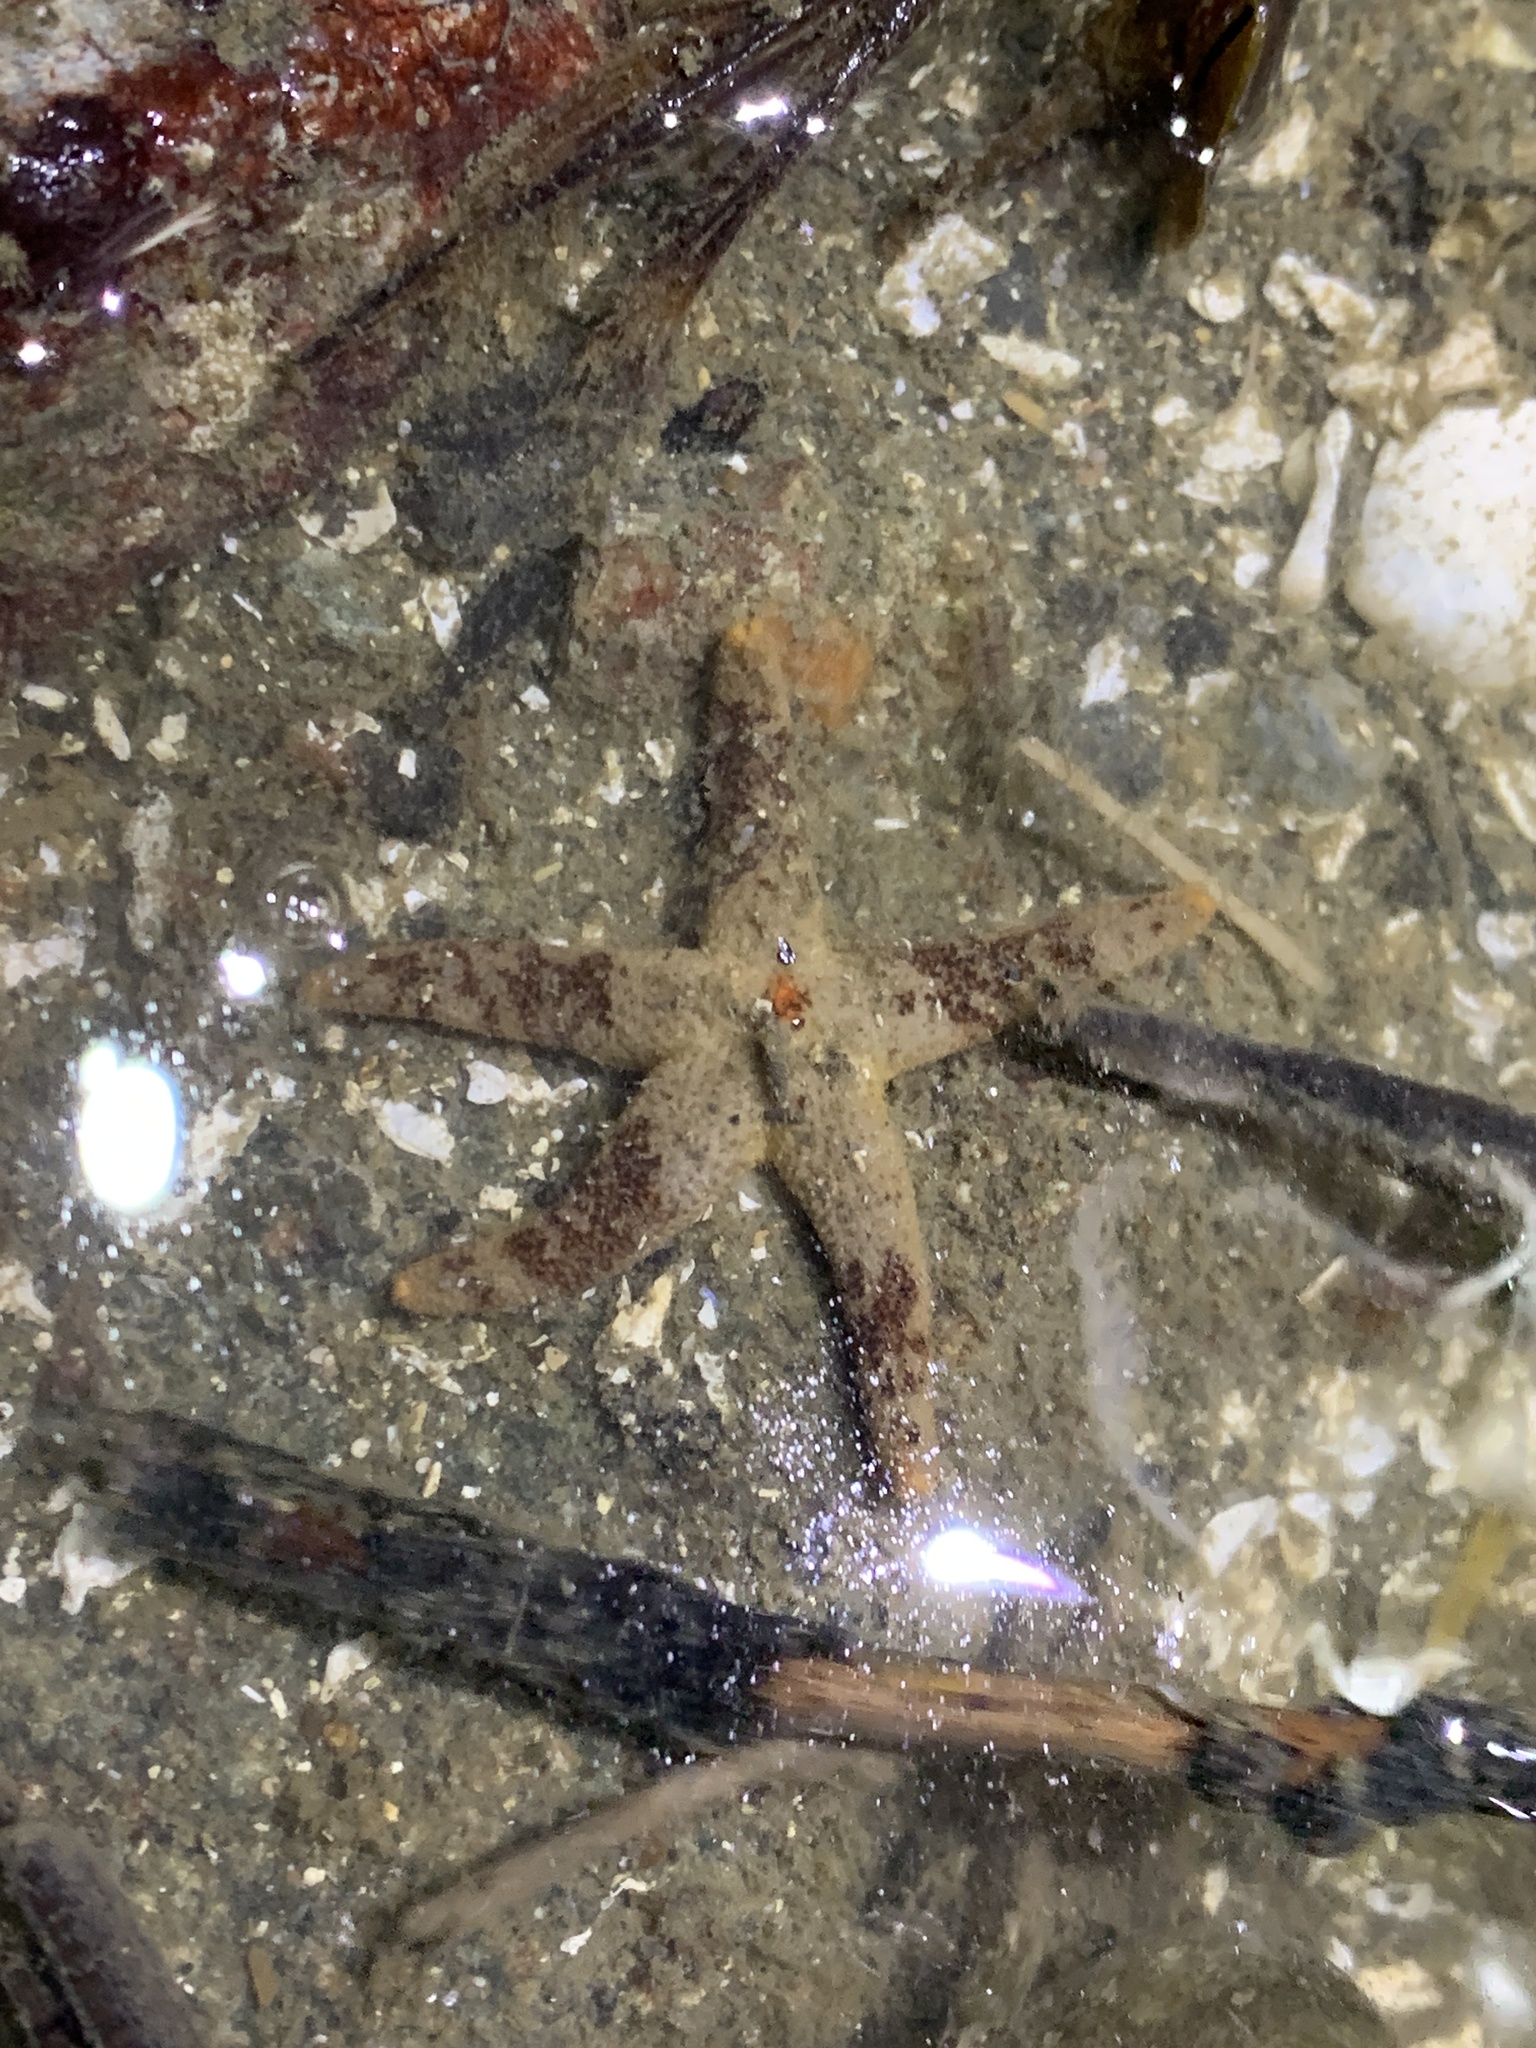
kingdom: Animalia
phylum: Echinodermata
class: Asteroidea
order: Spinulosida
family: Echinasteridae
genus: Henricia
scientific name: Henricia pumila
